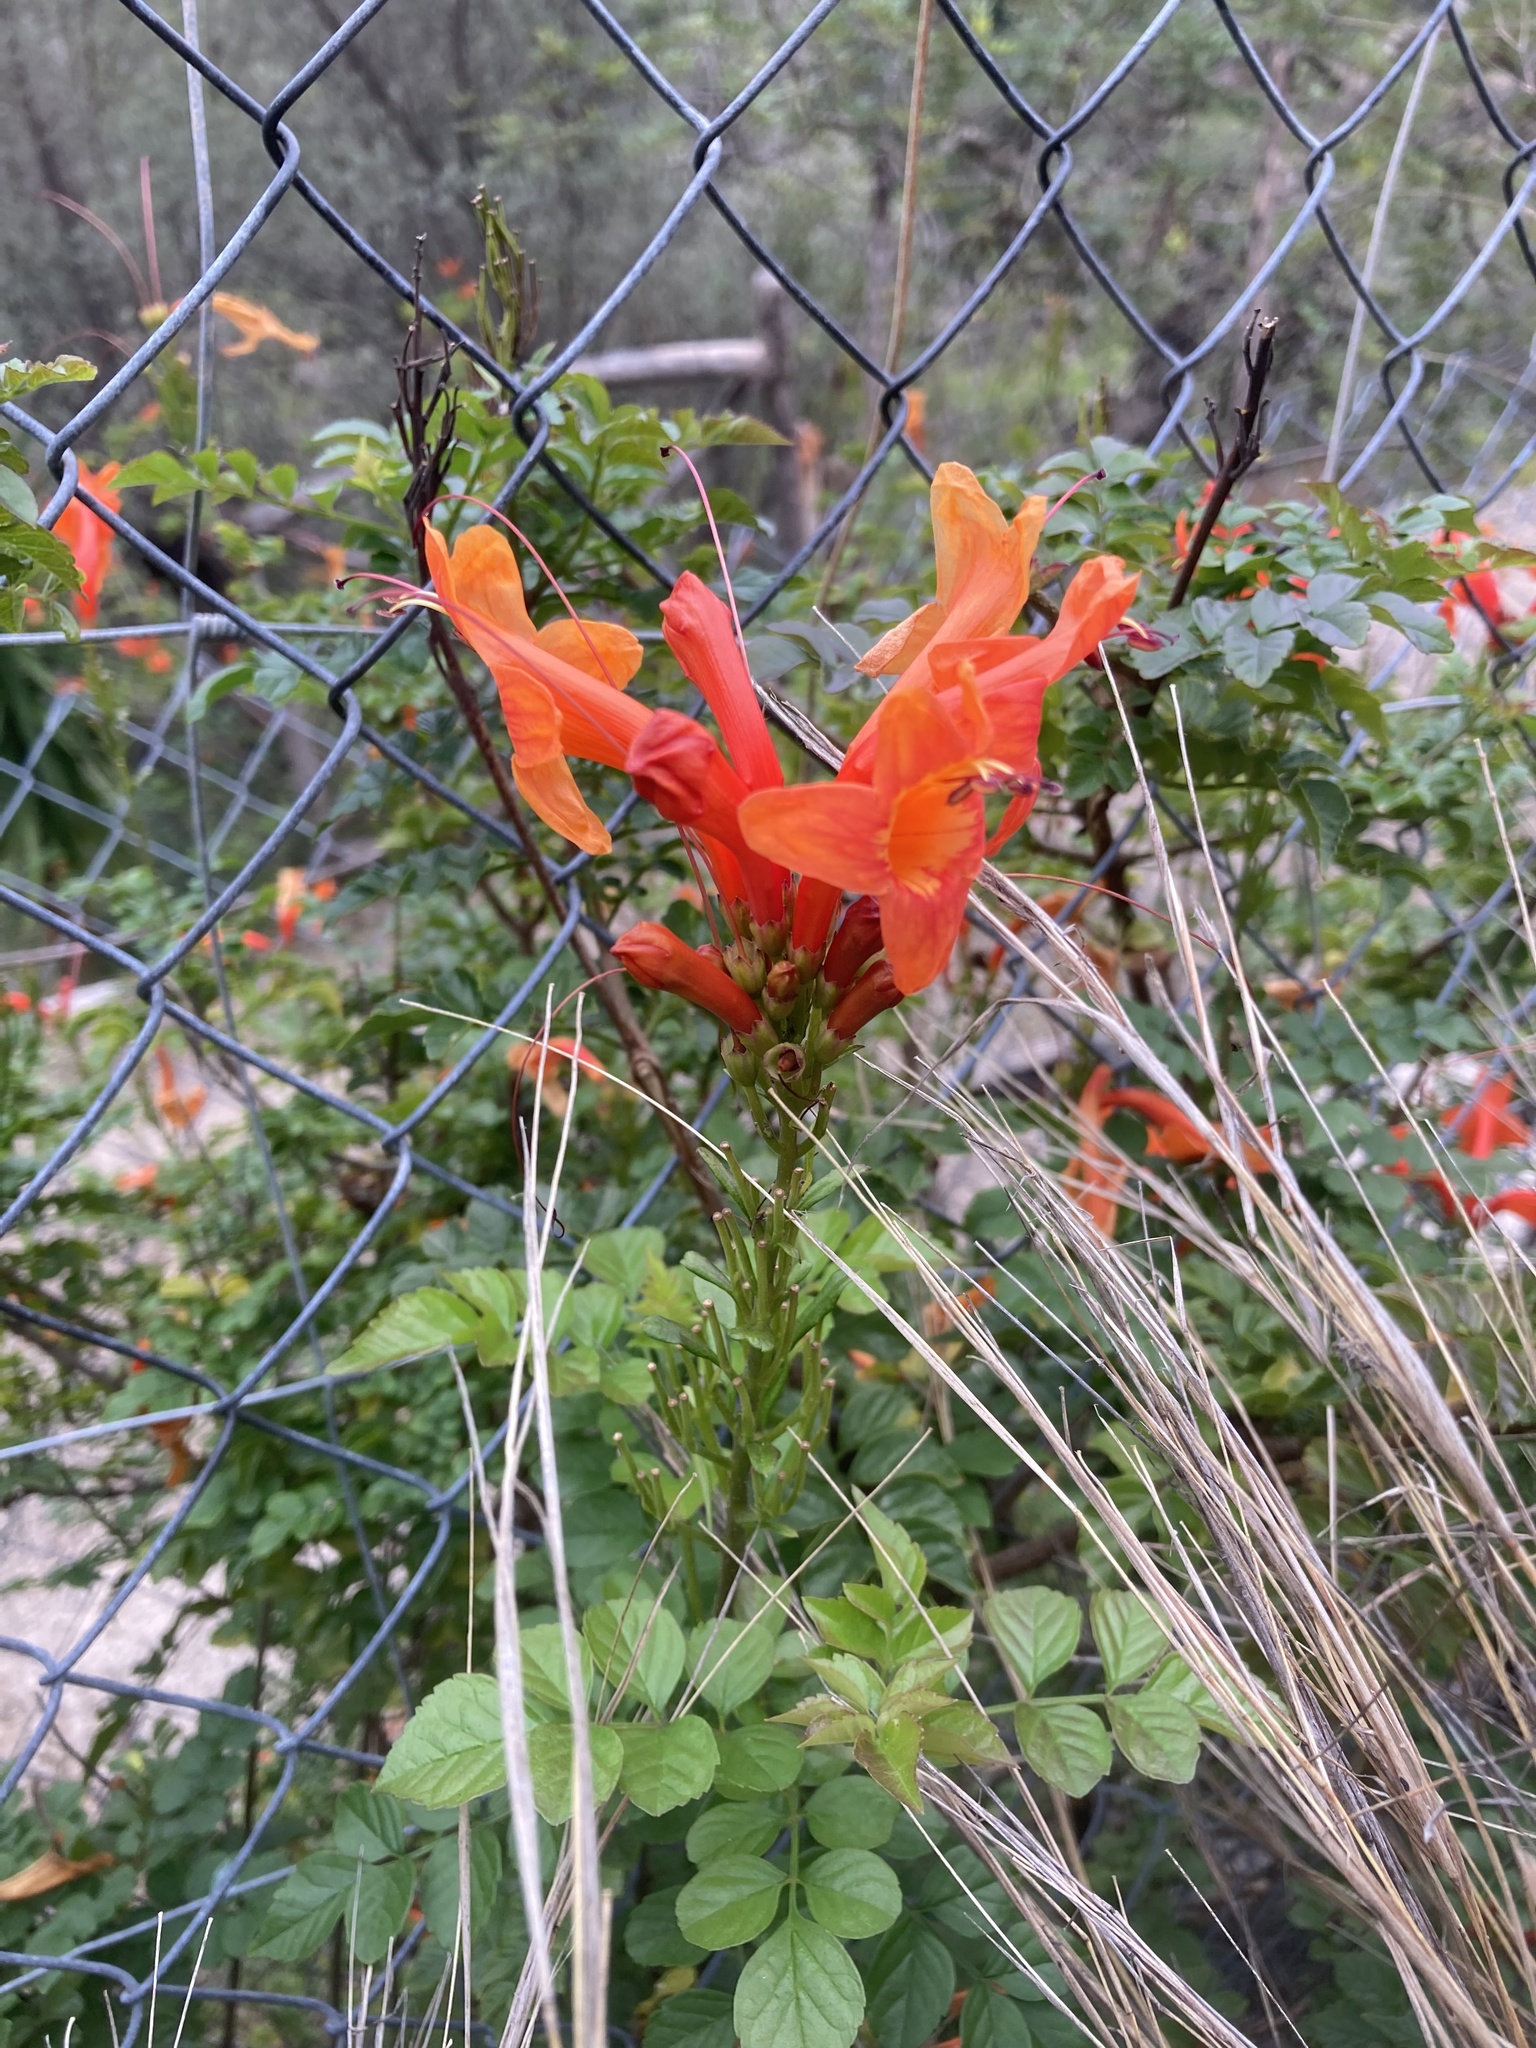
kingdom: Plantae
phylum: Tracheophyta
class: Magnoliopsida
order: Lamiales
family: Bignoniaceae
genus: Tecomaria
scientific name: Tecomaria capensis
